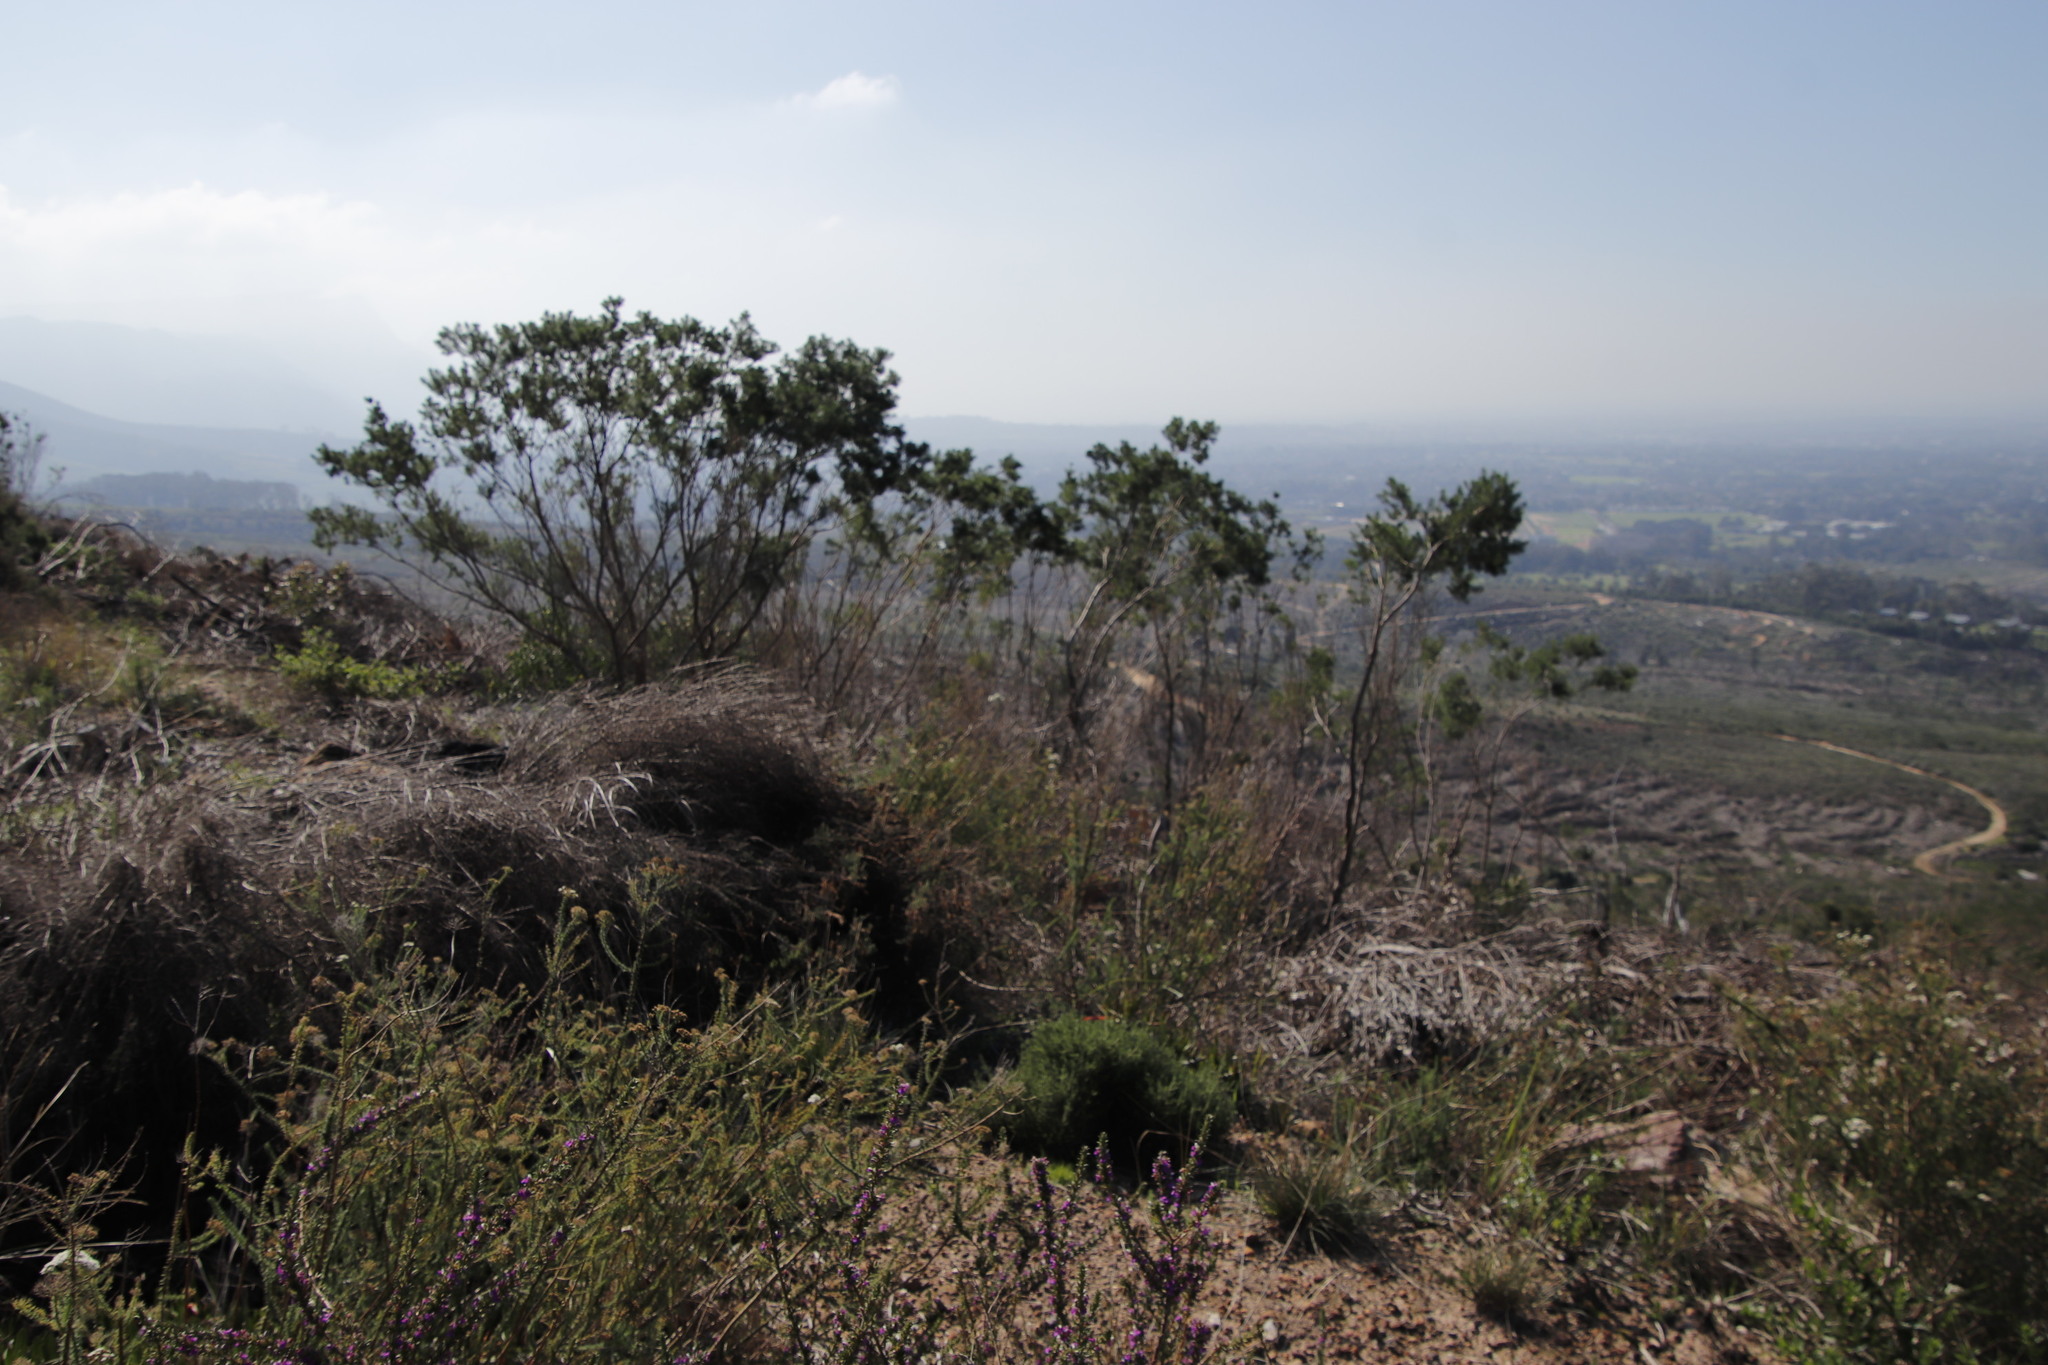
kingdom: Plantae
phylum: Tracheophyta
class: Magnoliopsida
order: Fabales
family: Fabaceae
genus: Psoralea
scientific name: Psoralea pinnata
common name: African scurfpea
